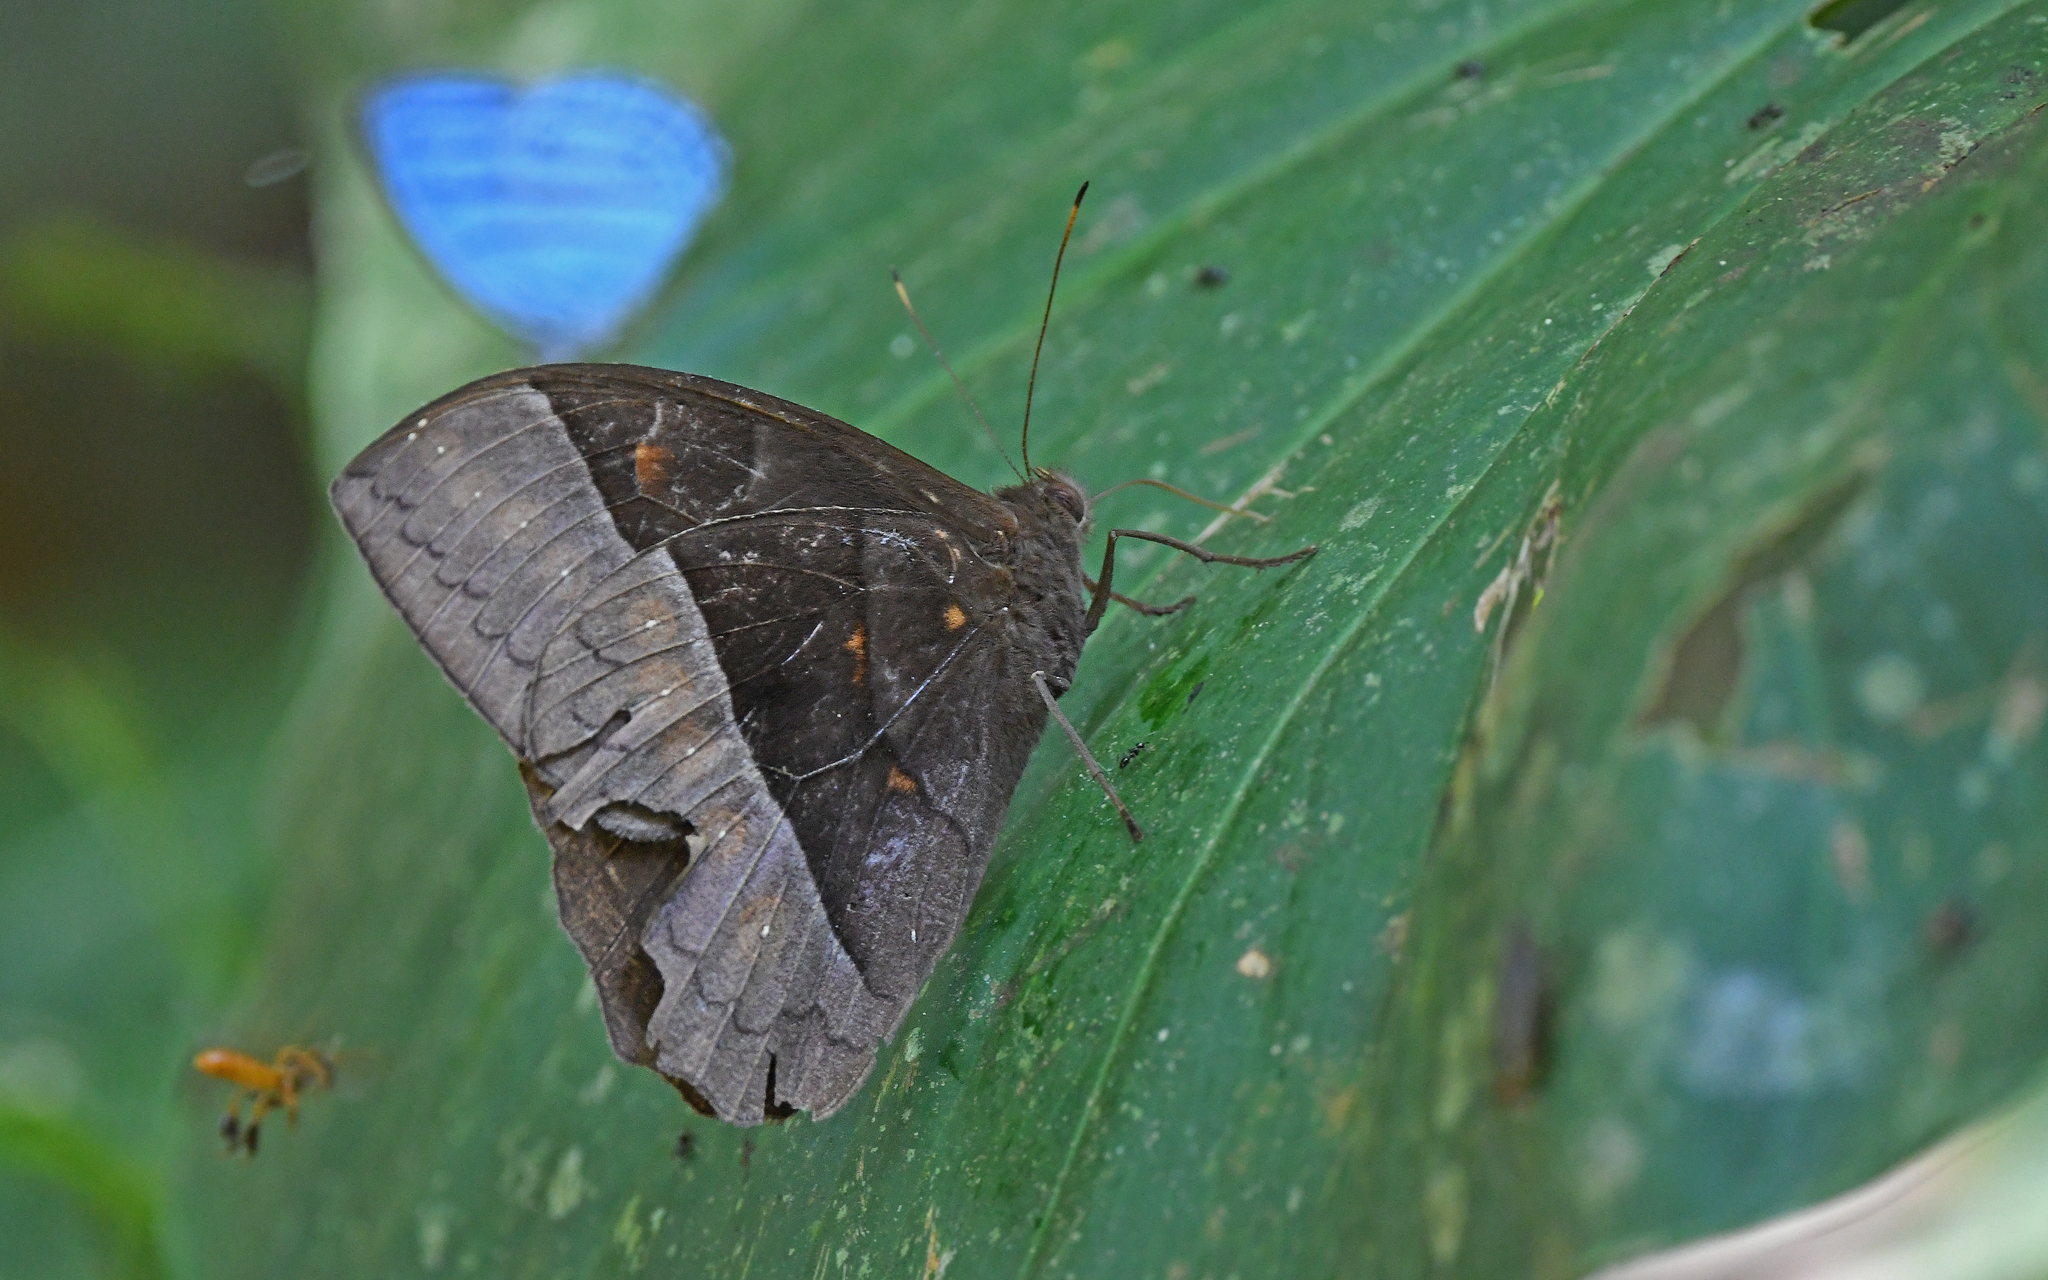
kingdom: Animalia
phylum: Arthropoda
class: Insecta
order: Lepidoptera
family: Nymphalidae
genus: Taygetis
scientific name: Taygetis oyapock
